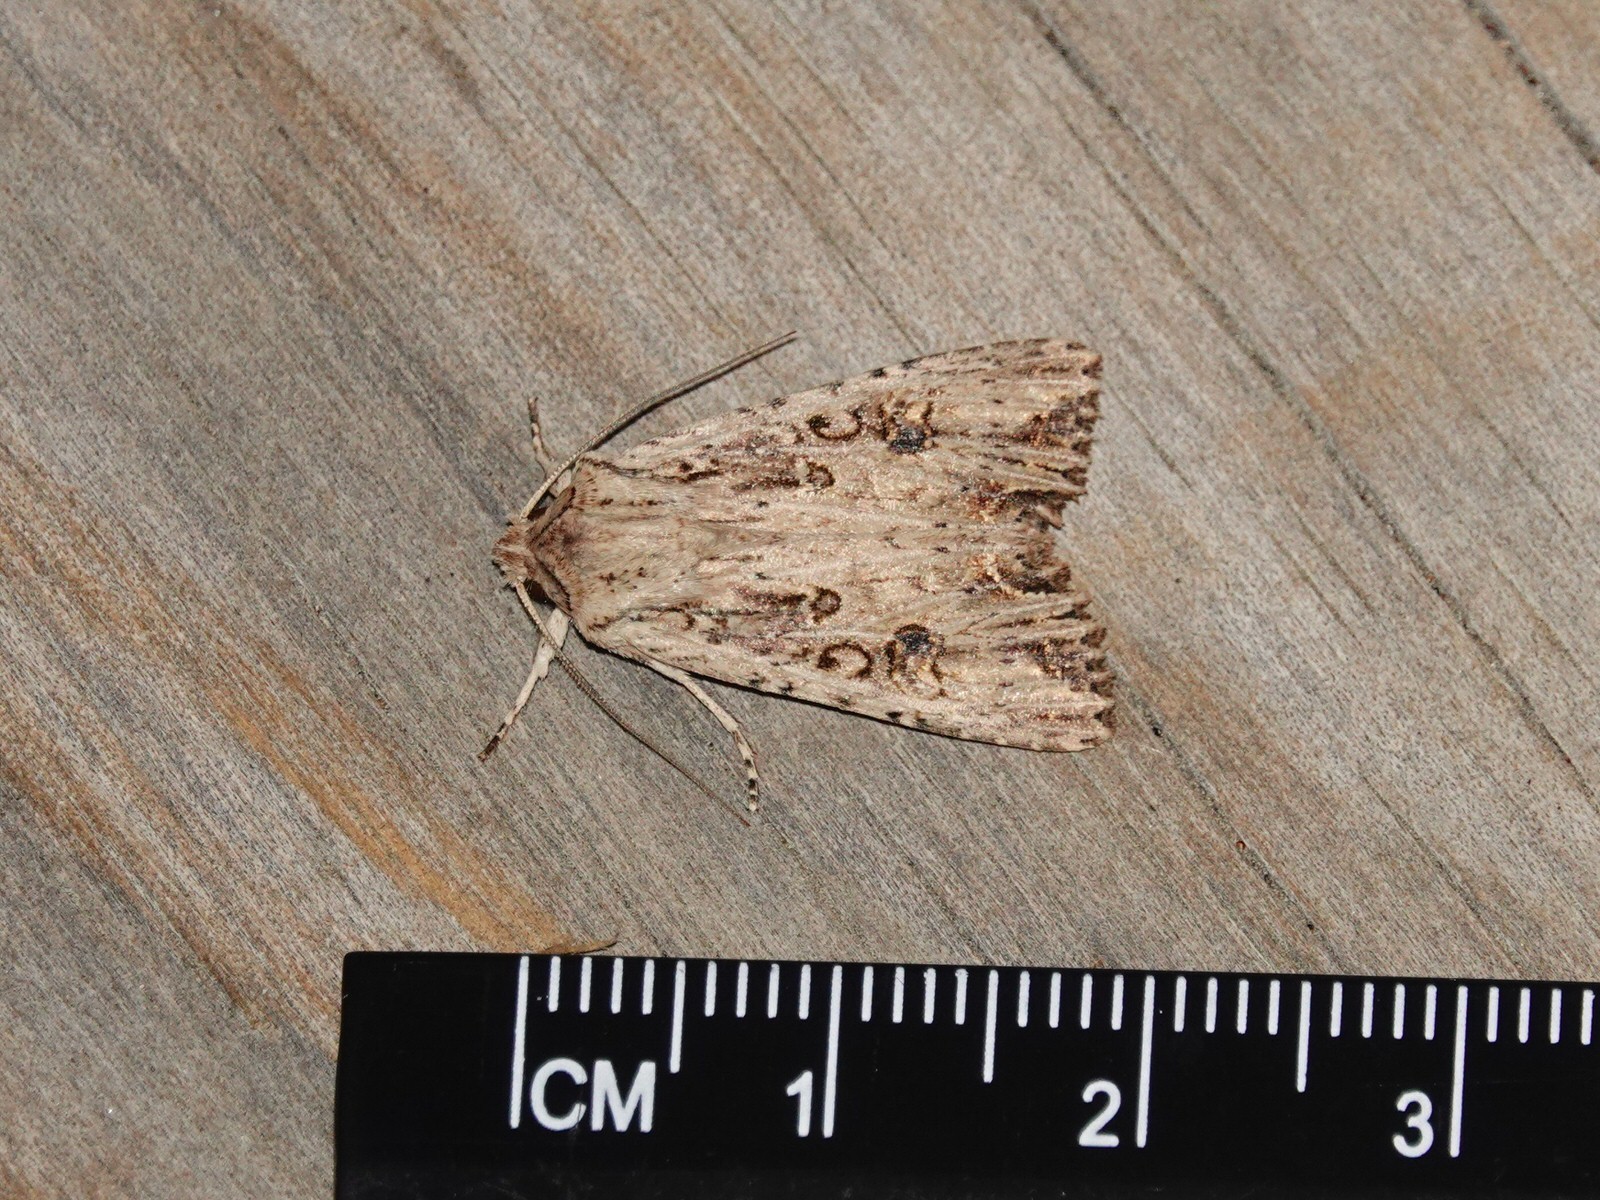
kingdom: Animalia
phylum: Arthropoda
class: Insecta
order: Lepidoptera
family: Noctuidae
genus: Ichneutica
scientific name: Ichneutica lignana
